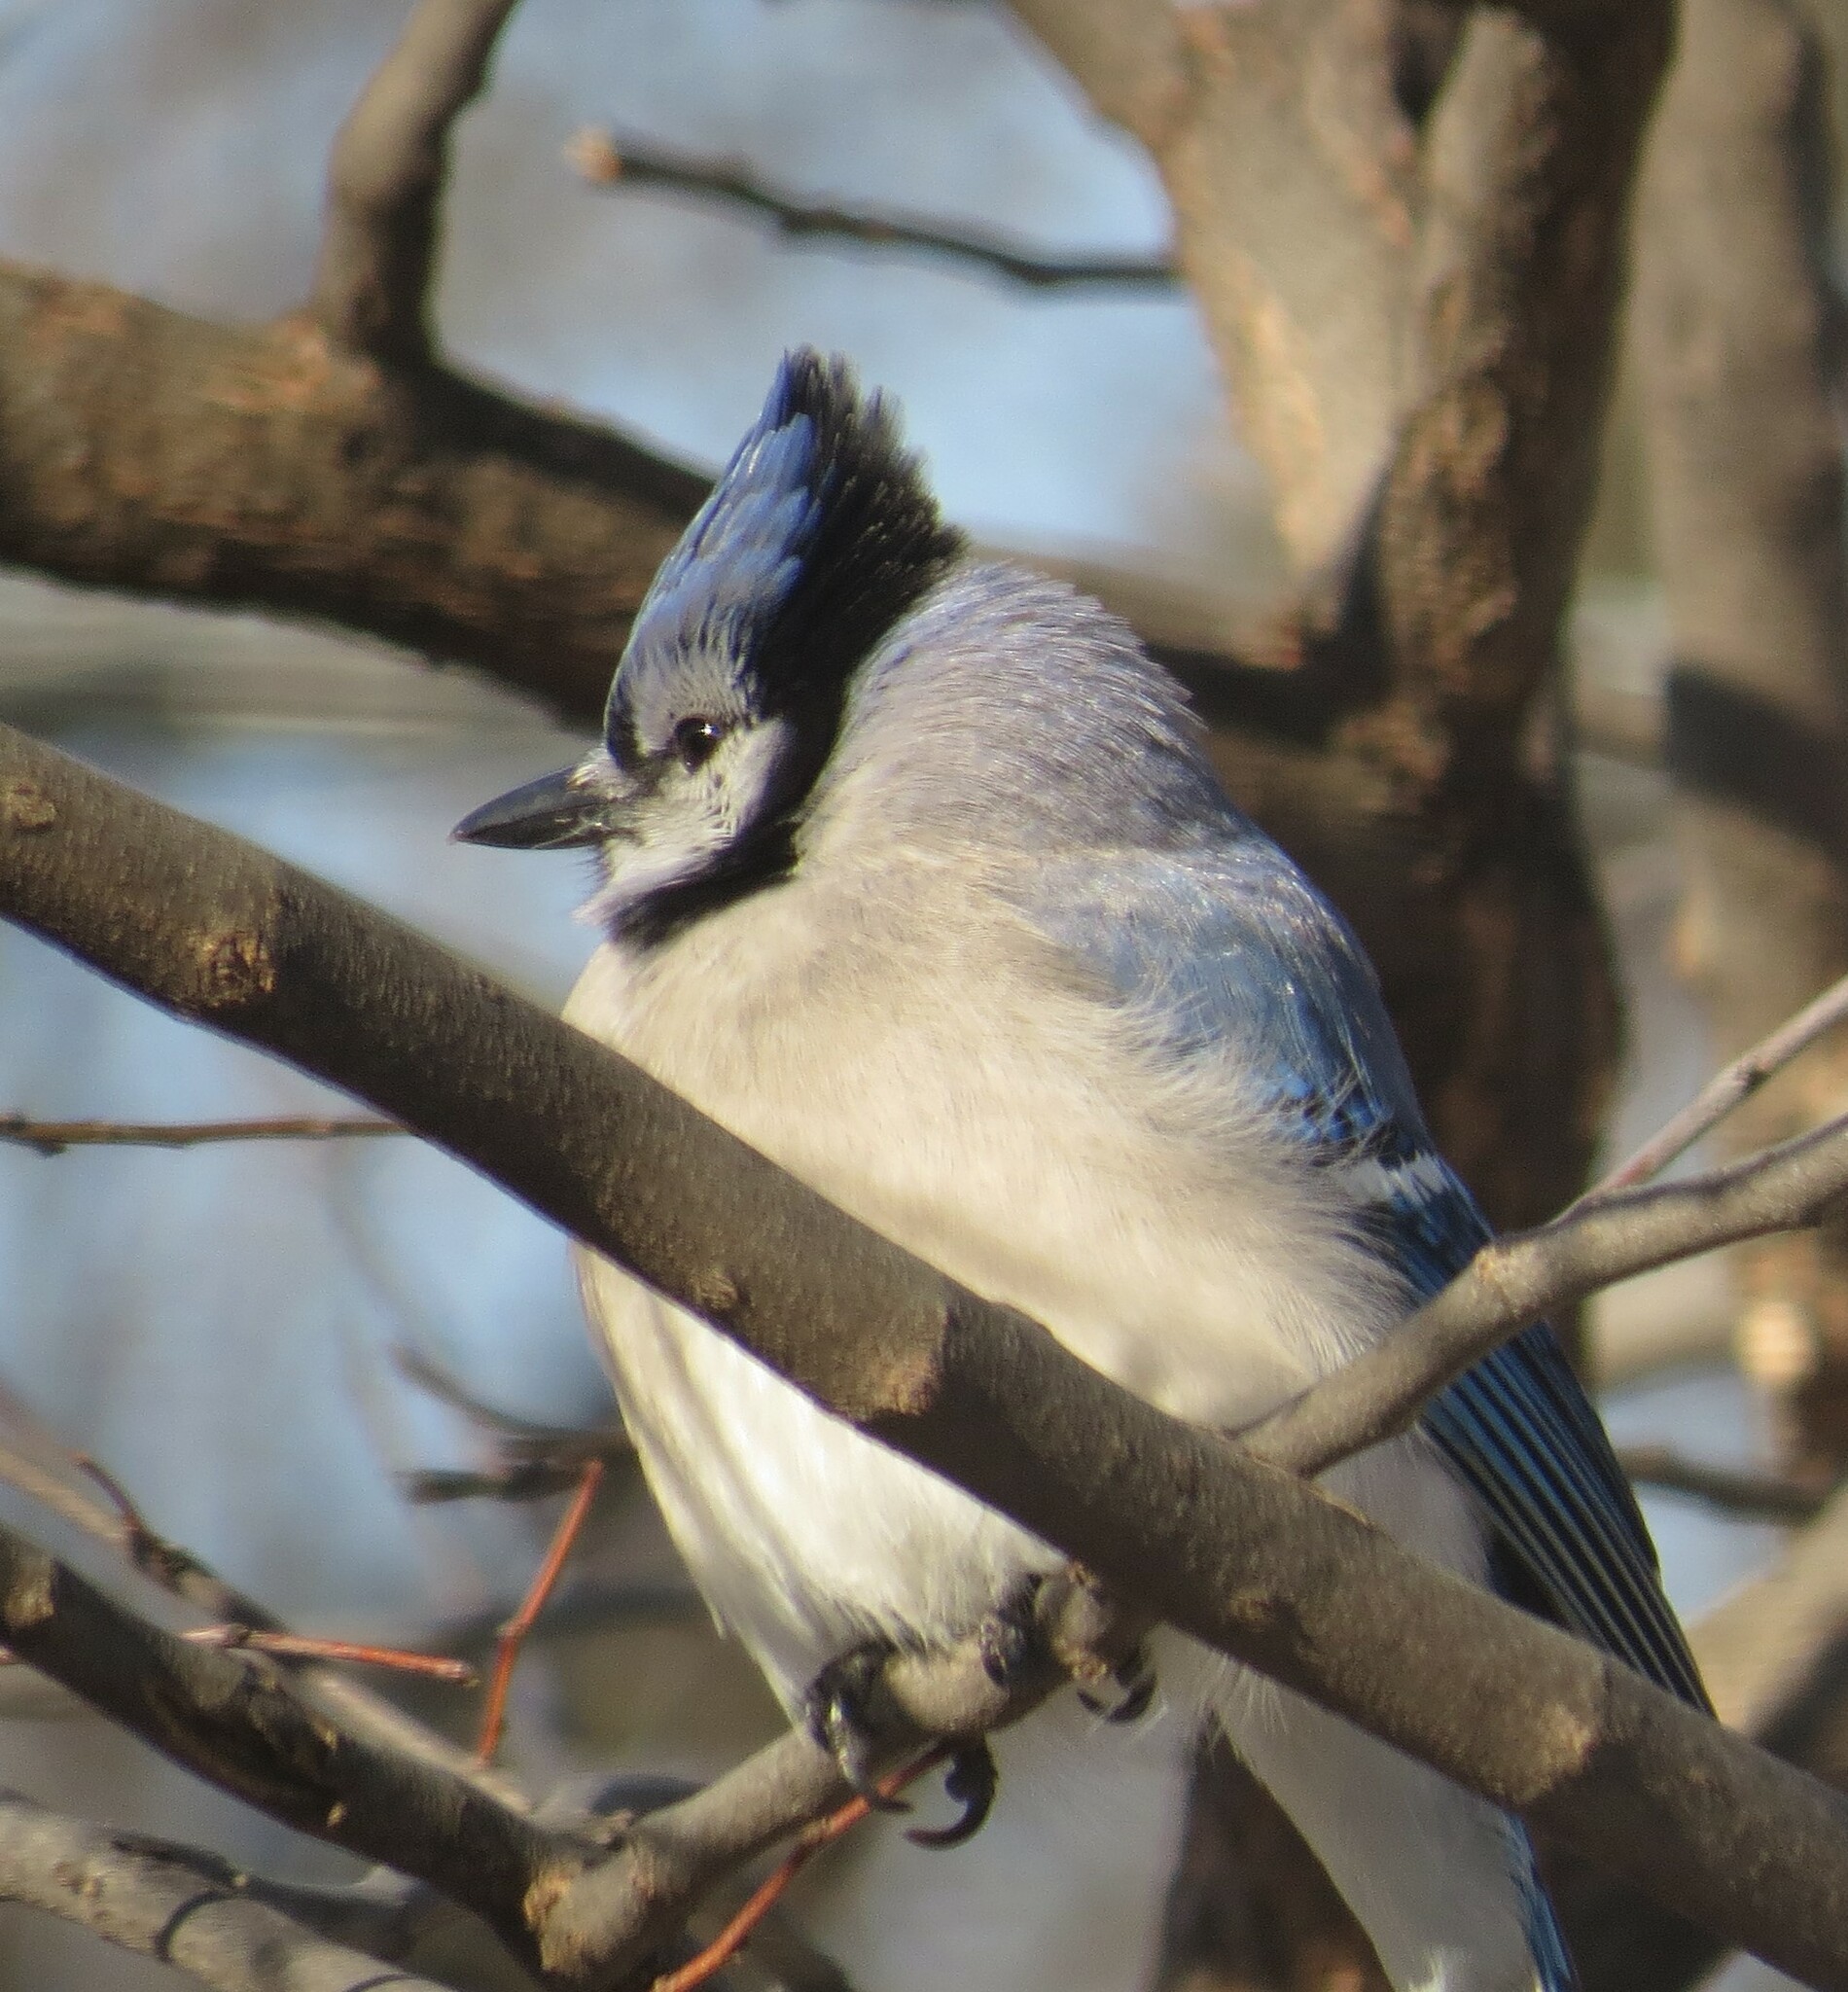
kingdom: Animalia
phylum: Chordata
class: Aves
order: Passeriformes
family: Corvidae
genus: Cyanocitta
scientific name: Cyanocitta cristata
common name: Blue jay
